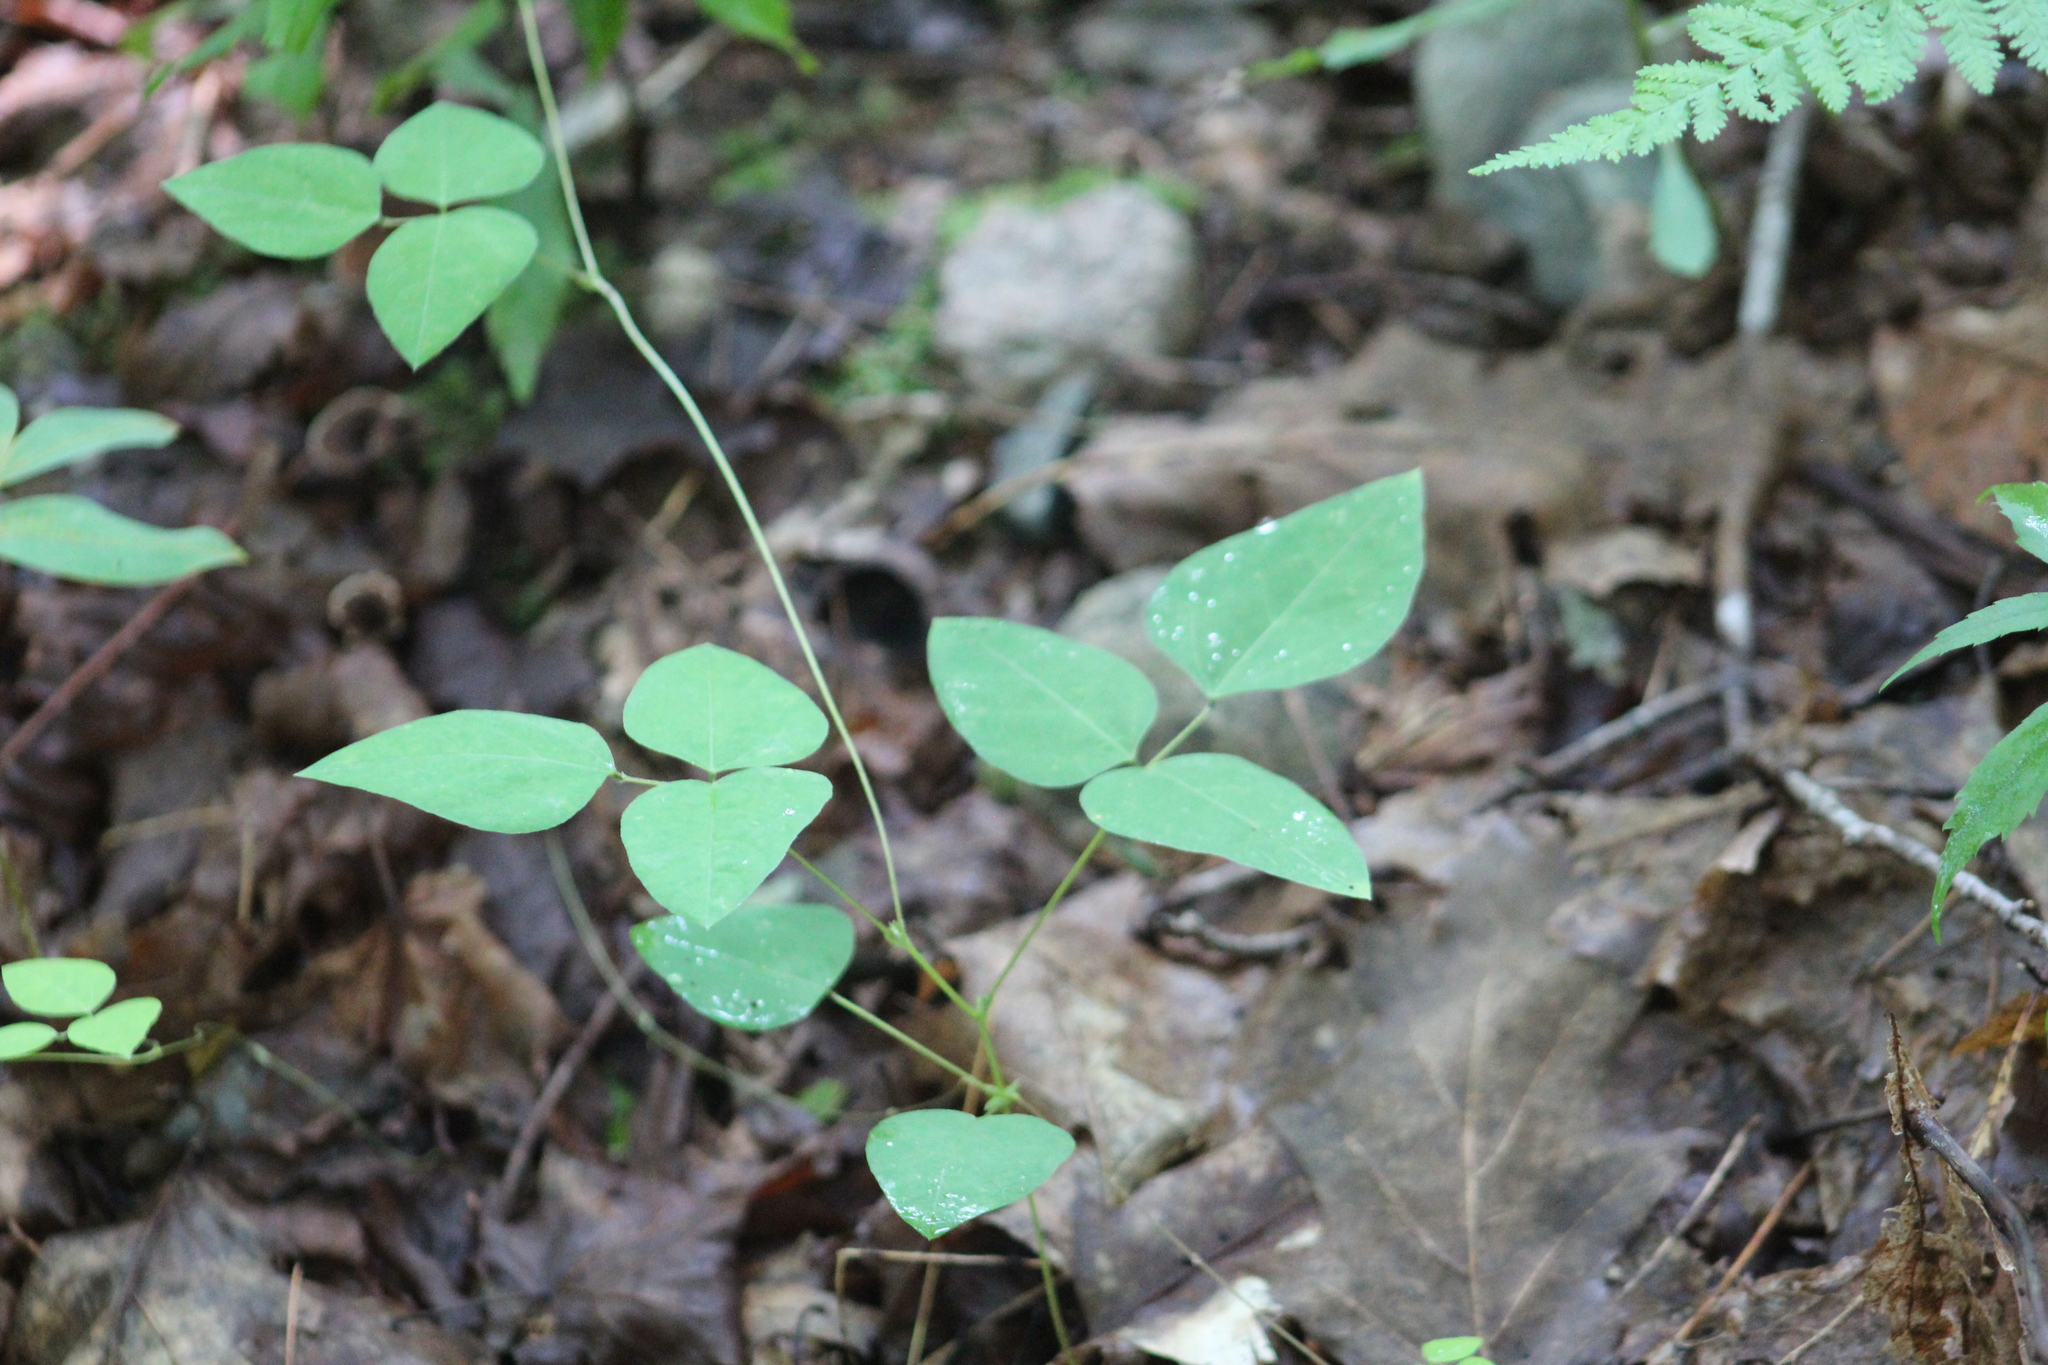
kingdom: Plantae
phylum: Tracheophyta
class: Magnoliopsida
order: Fabales
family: Fabaceae
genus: Amphicarpaea
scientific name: Amphicarpaea bracteata
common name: American hog peanut
